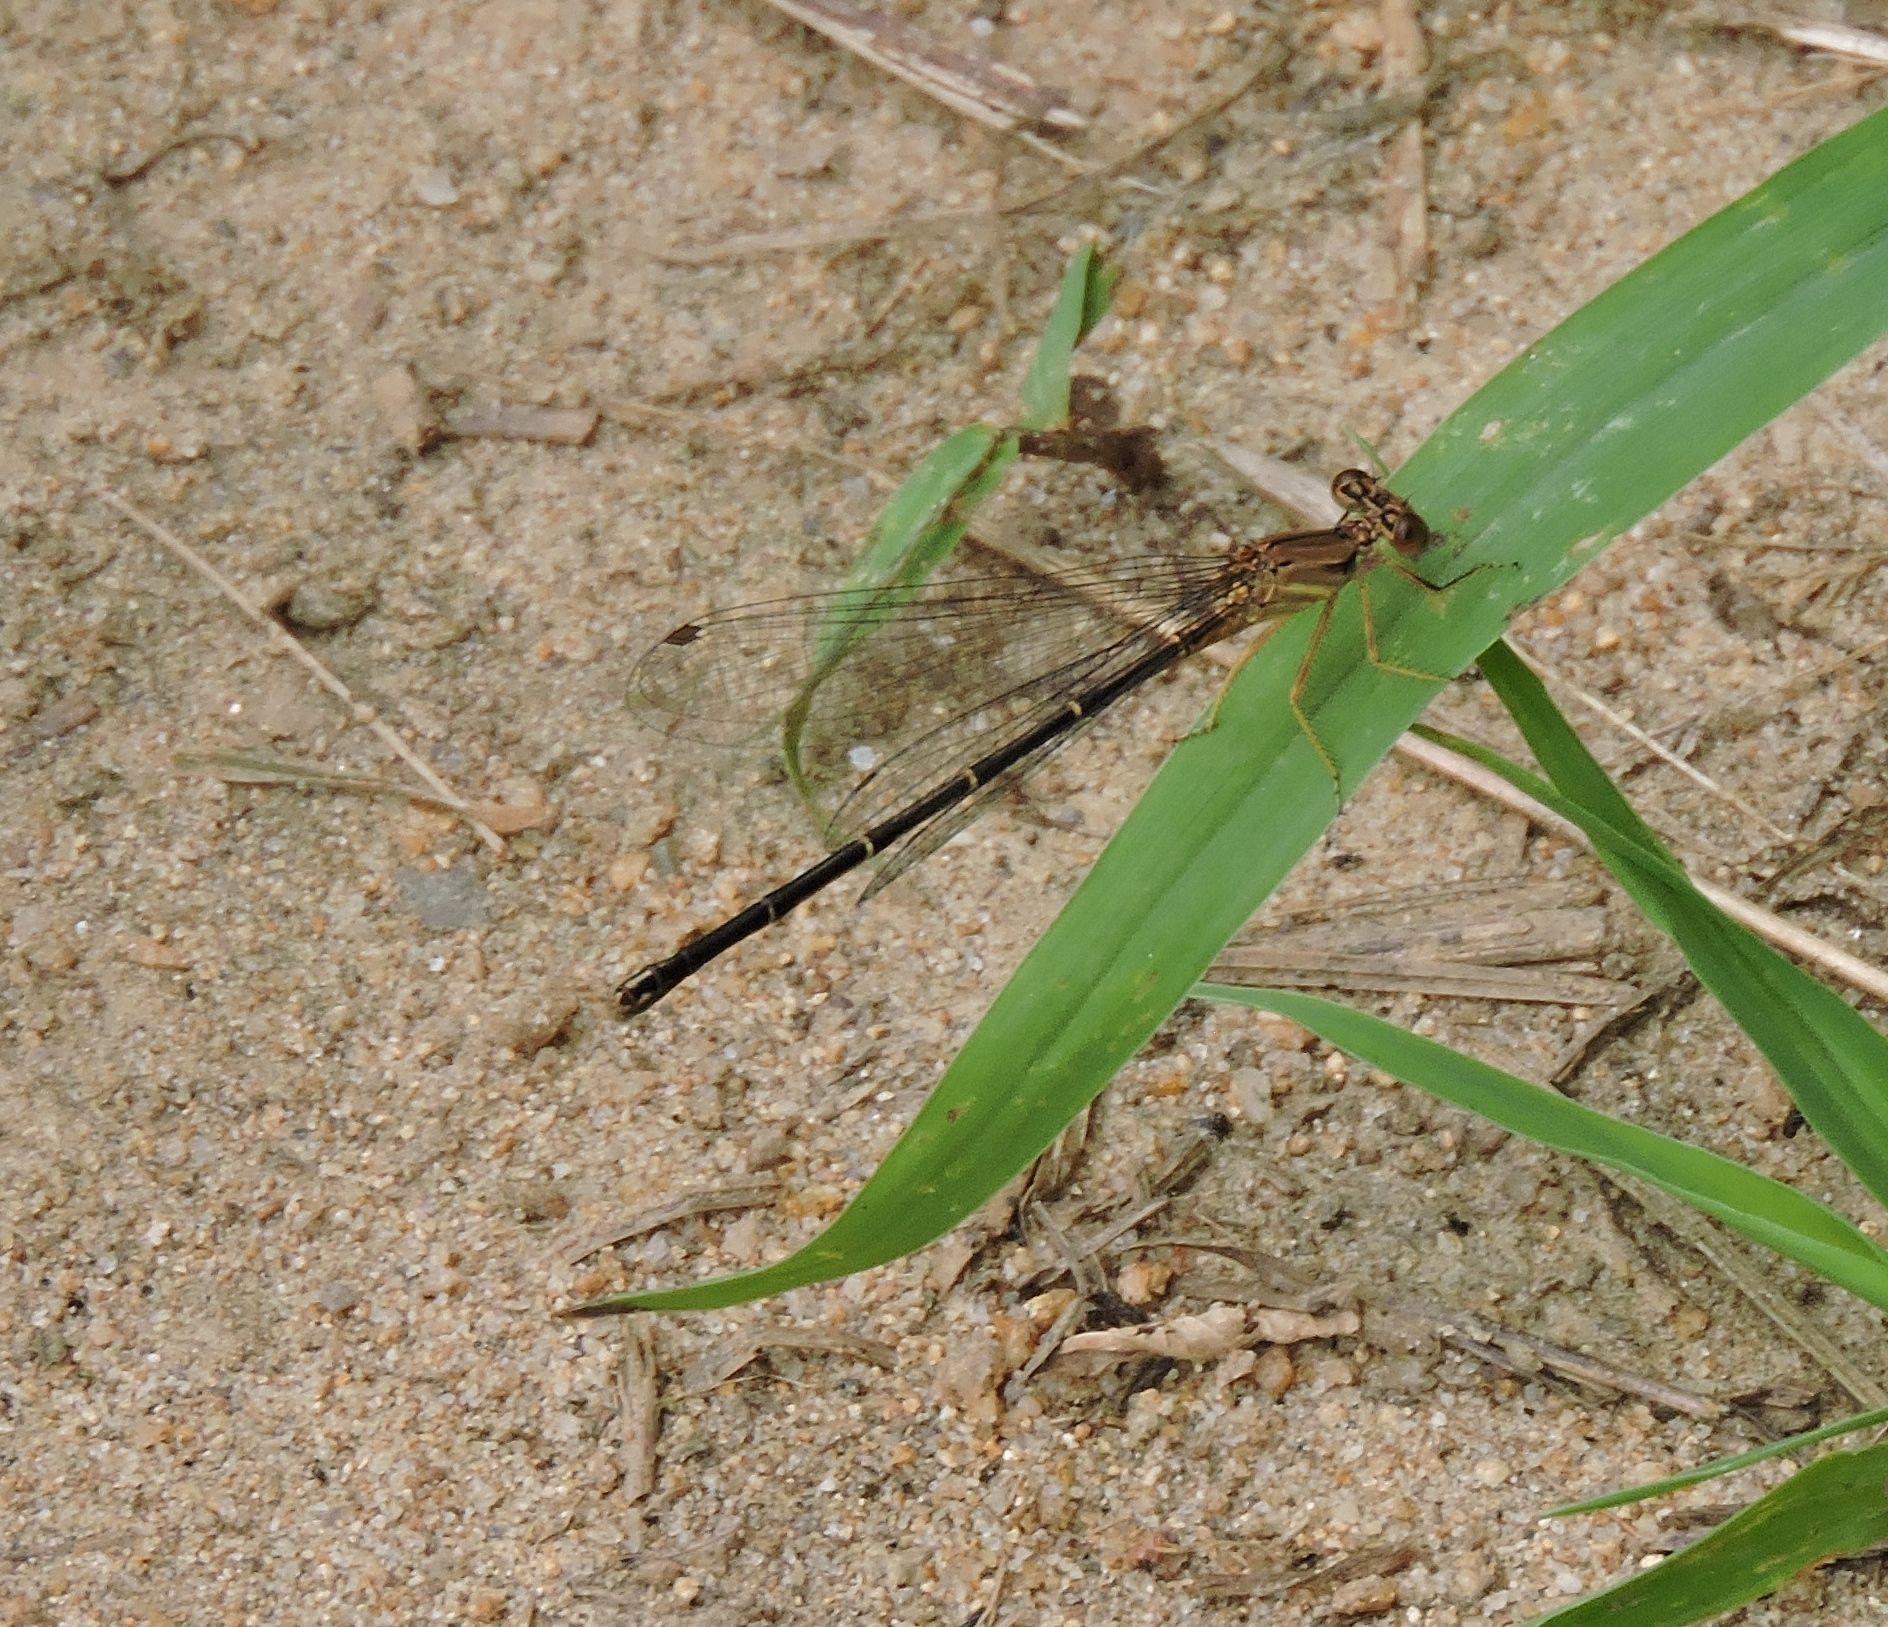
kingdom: Animalia
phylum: Arthropoda
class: Insecta
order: Odonata
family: Coenagrionidae
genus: Argia
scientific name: Argia apicalis
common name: Blue-fronted dancer
